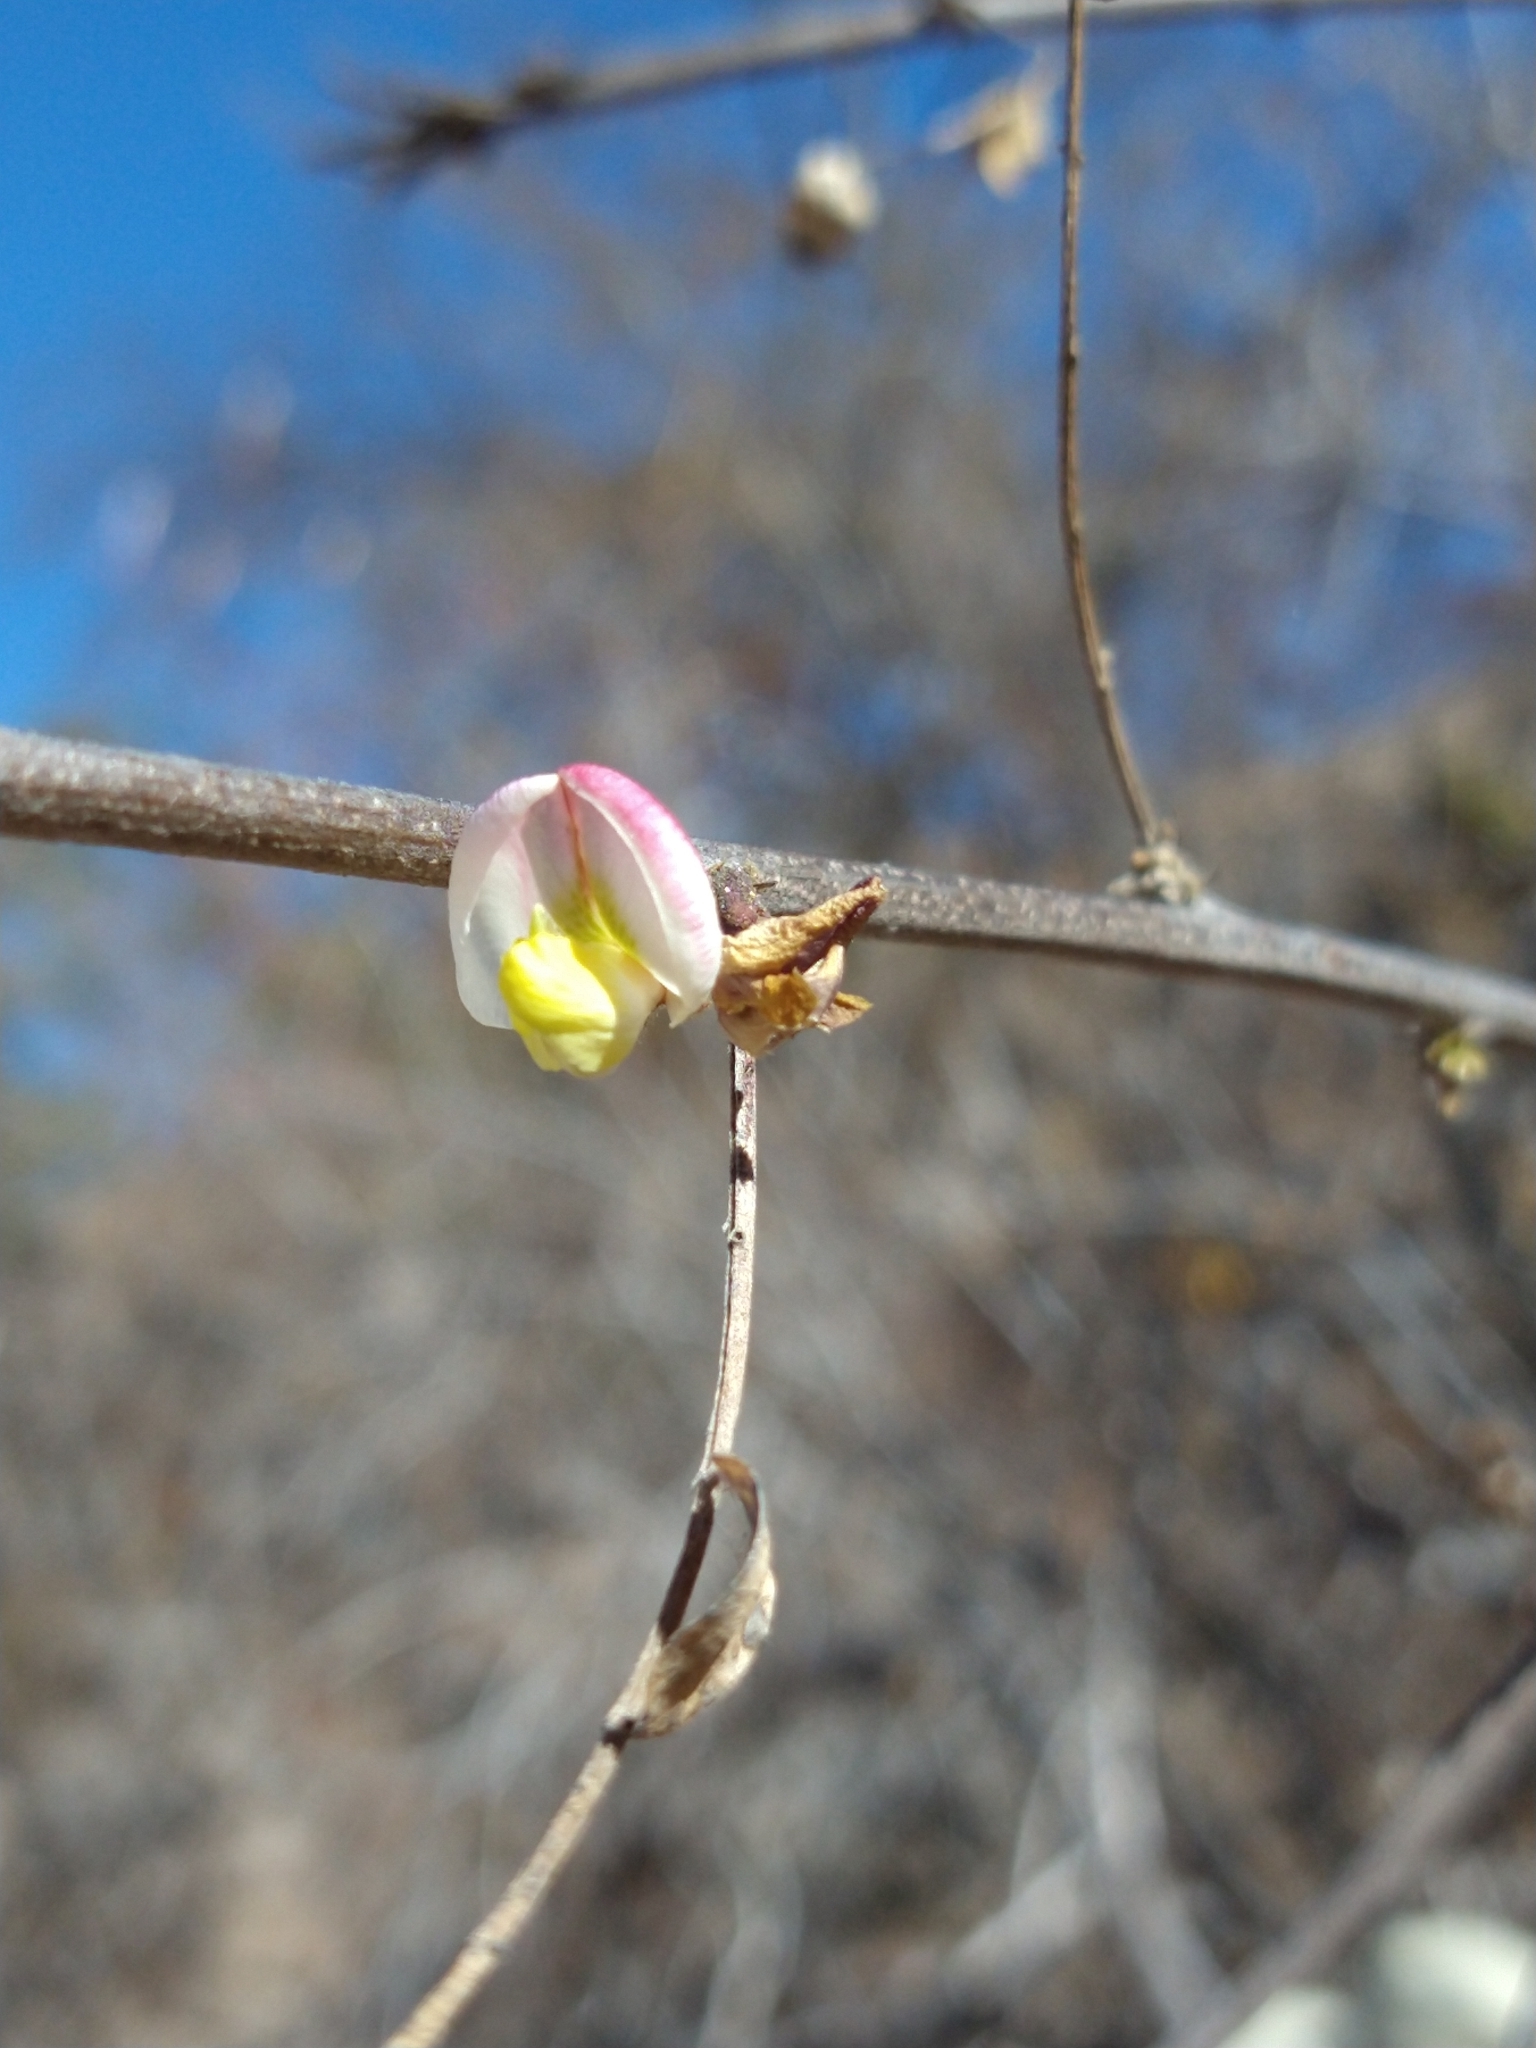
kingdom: Plantae
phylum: Tracheophyta
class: Magnoliopsida
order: Fabales
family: Fabaceae
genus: Coursetia
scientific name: Coursetia glandulosa
